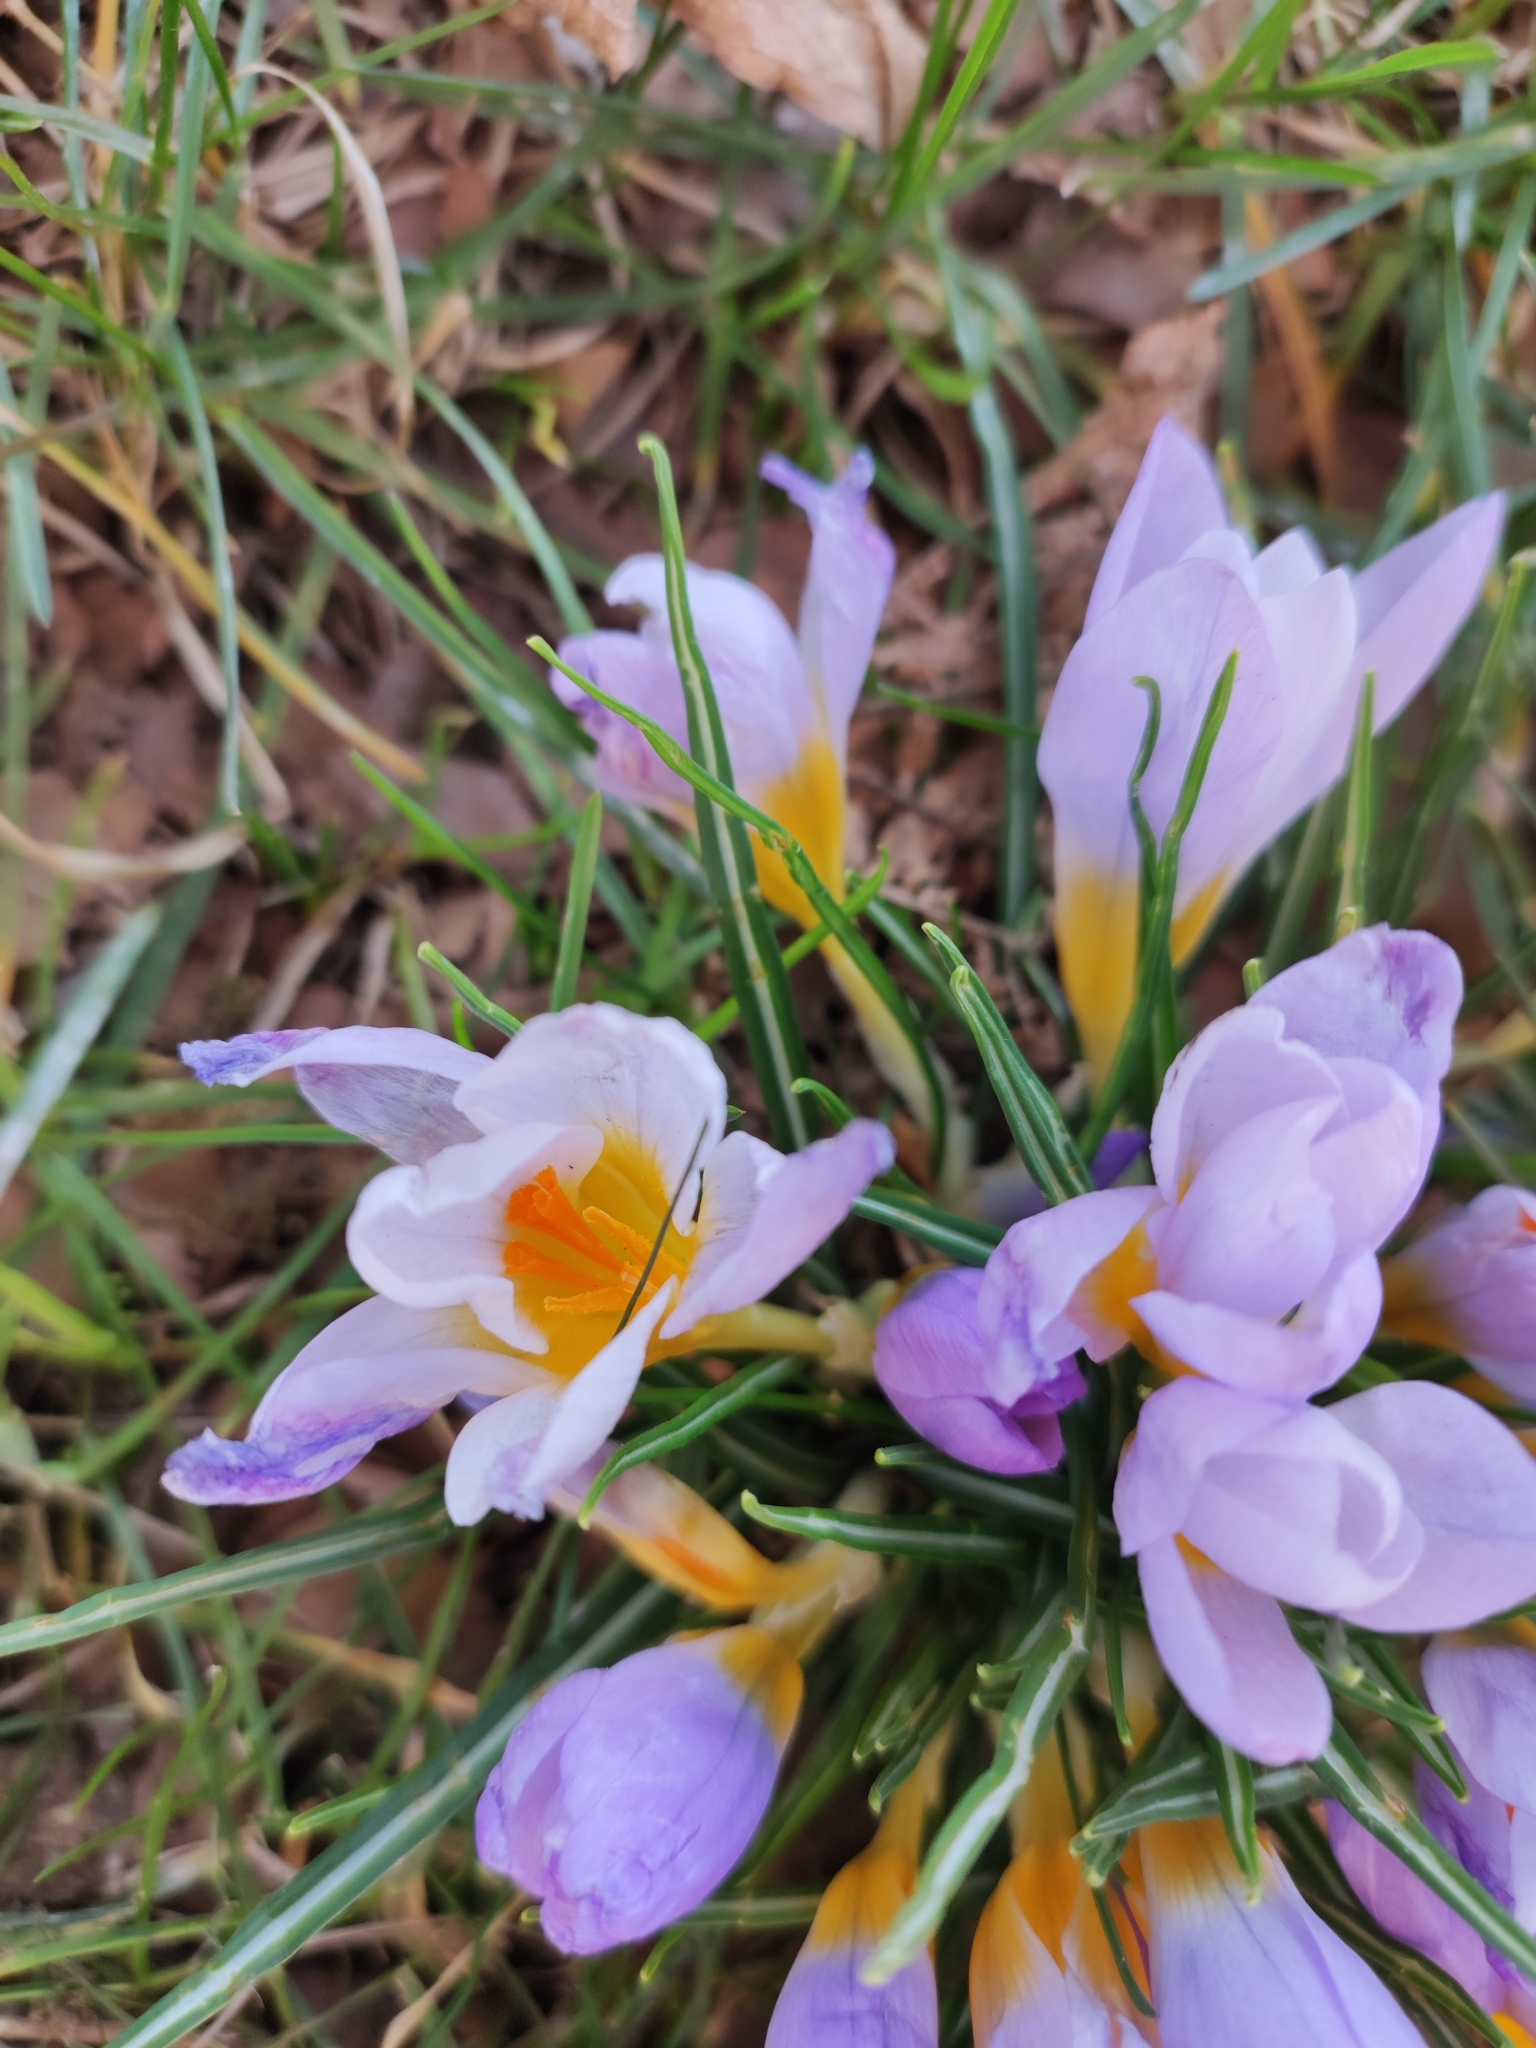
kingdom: Plantae
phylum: Tracheophyta
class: Liliopsida
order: Asparagales
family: Iridaceae
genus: Crocus
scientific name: Crocus nivalis
